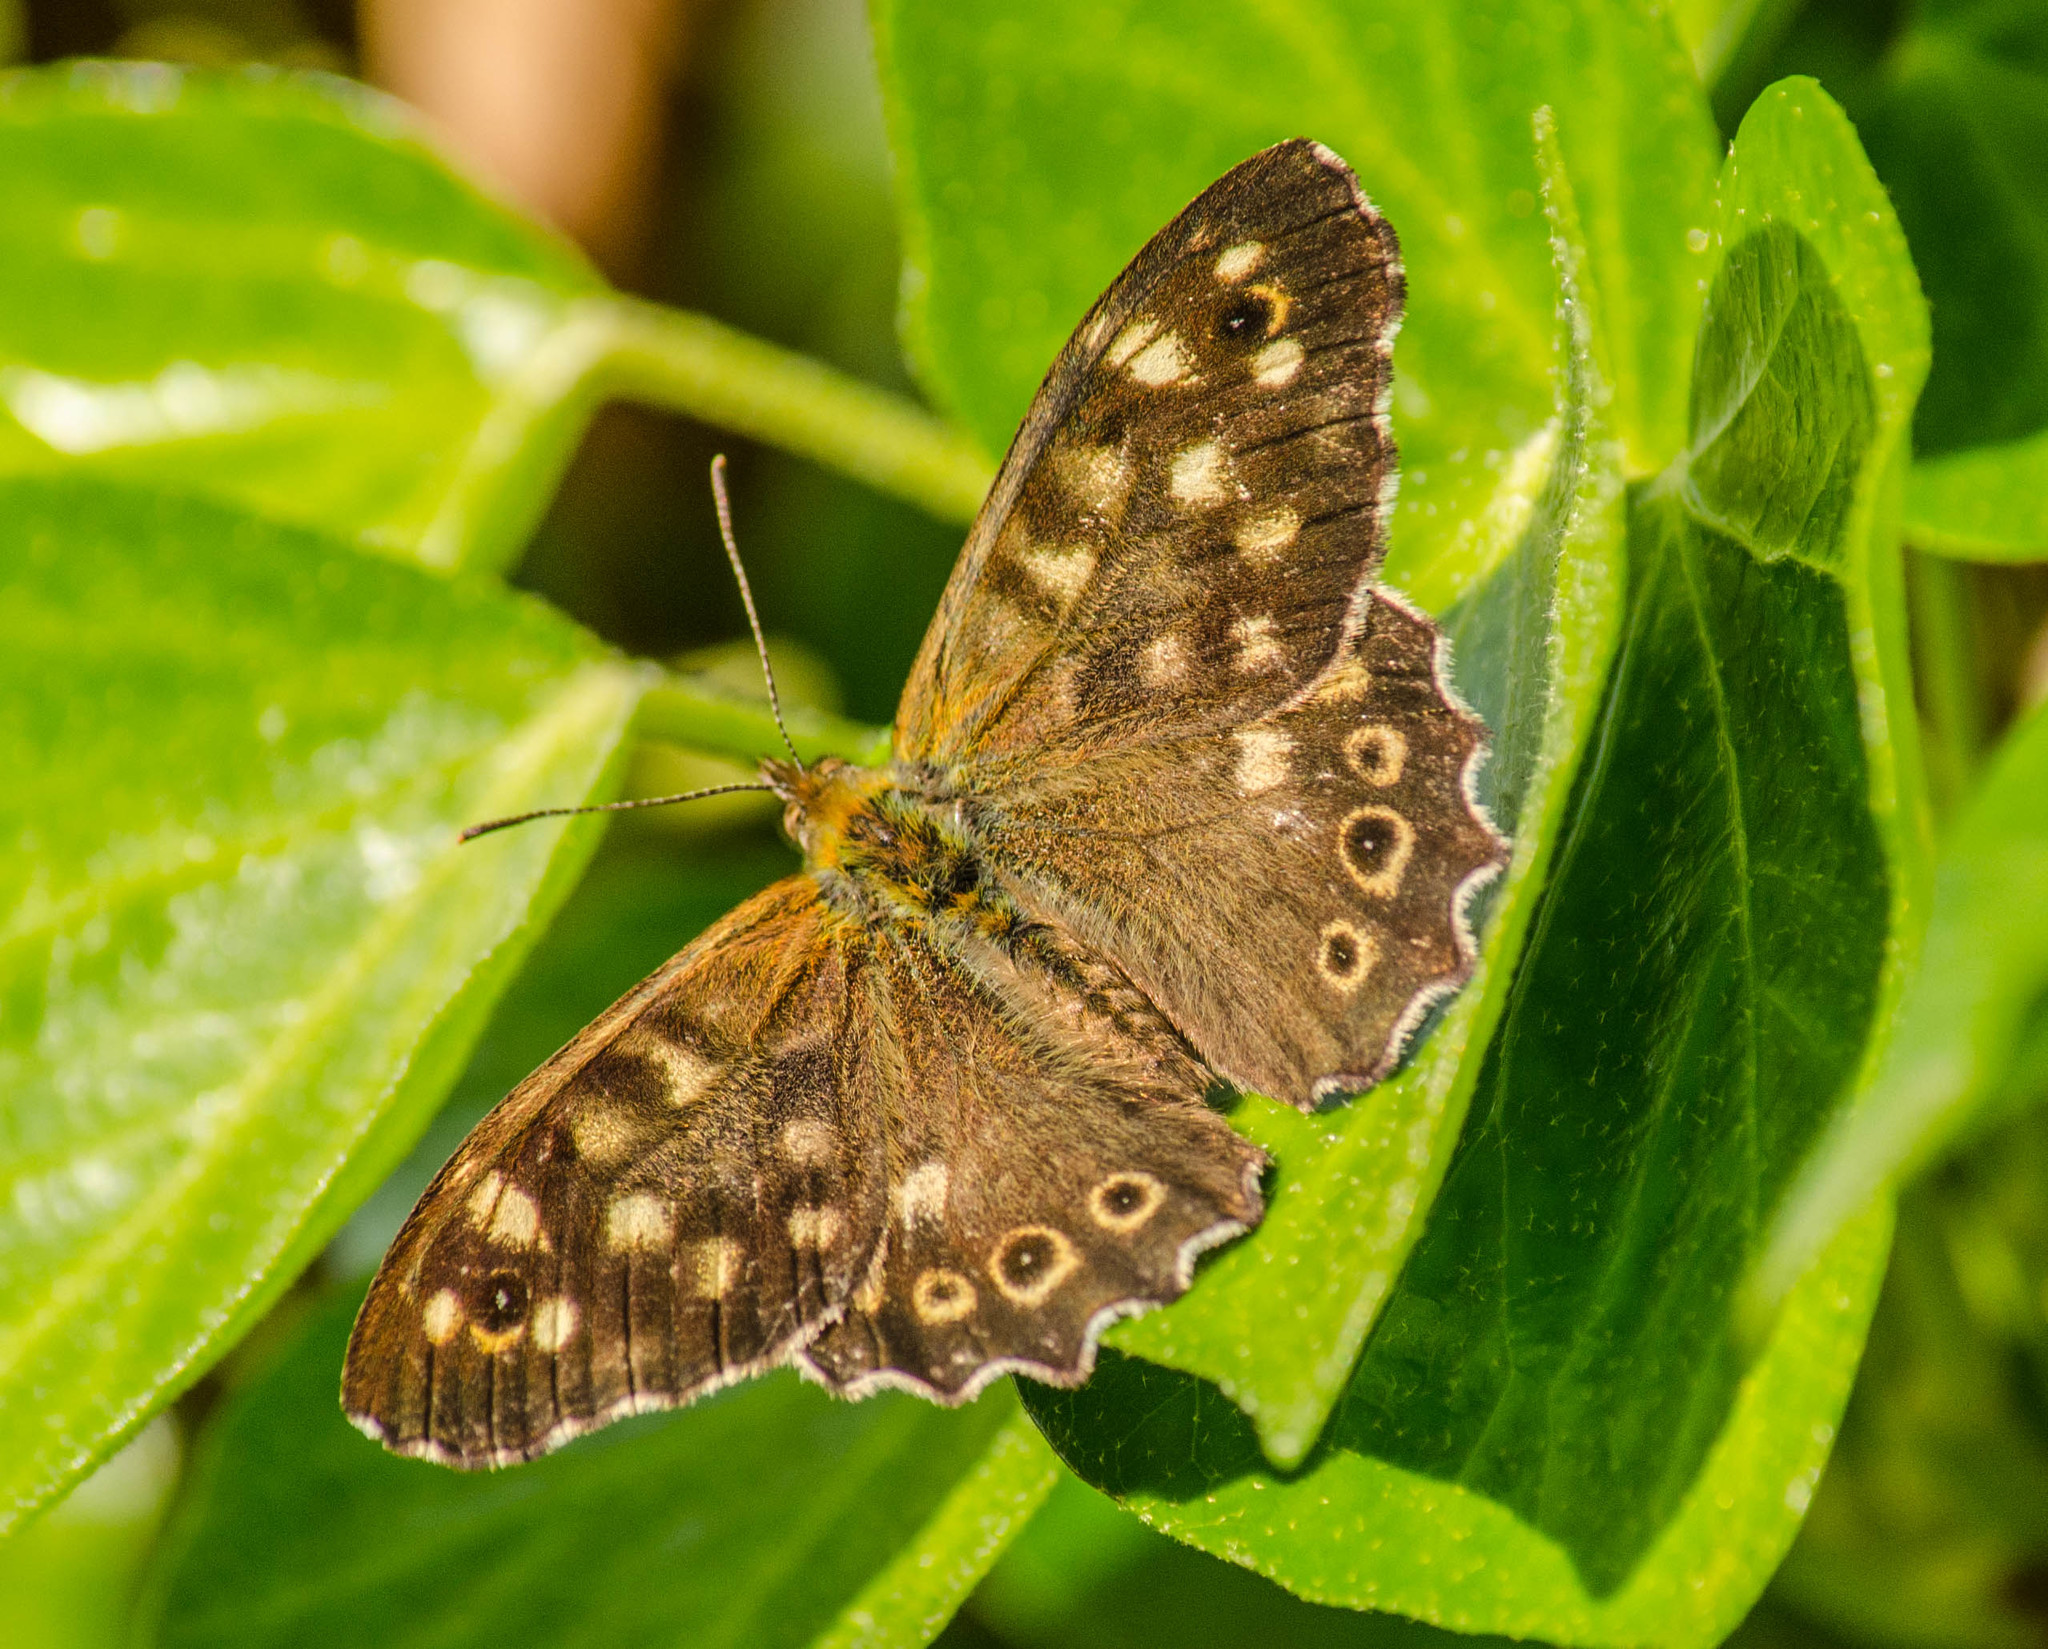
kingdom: Animalia
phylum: Arthropoda
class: Insecta
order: Lepidoptera
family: Nymphalidae
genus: Pararge
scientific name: Pararge aegeria
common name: Speckled wood
